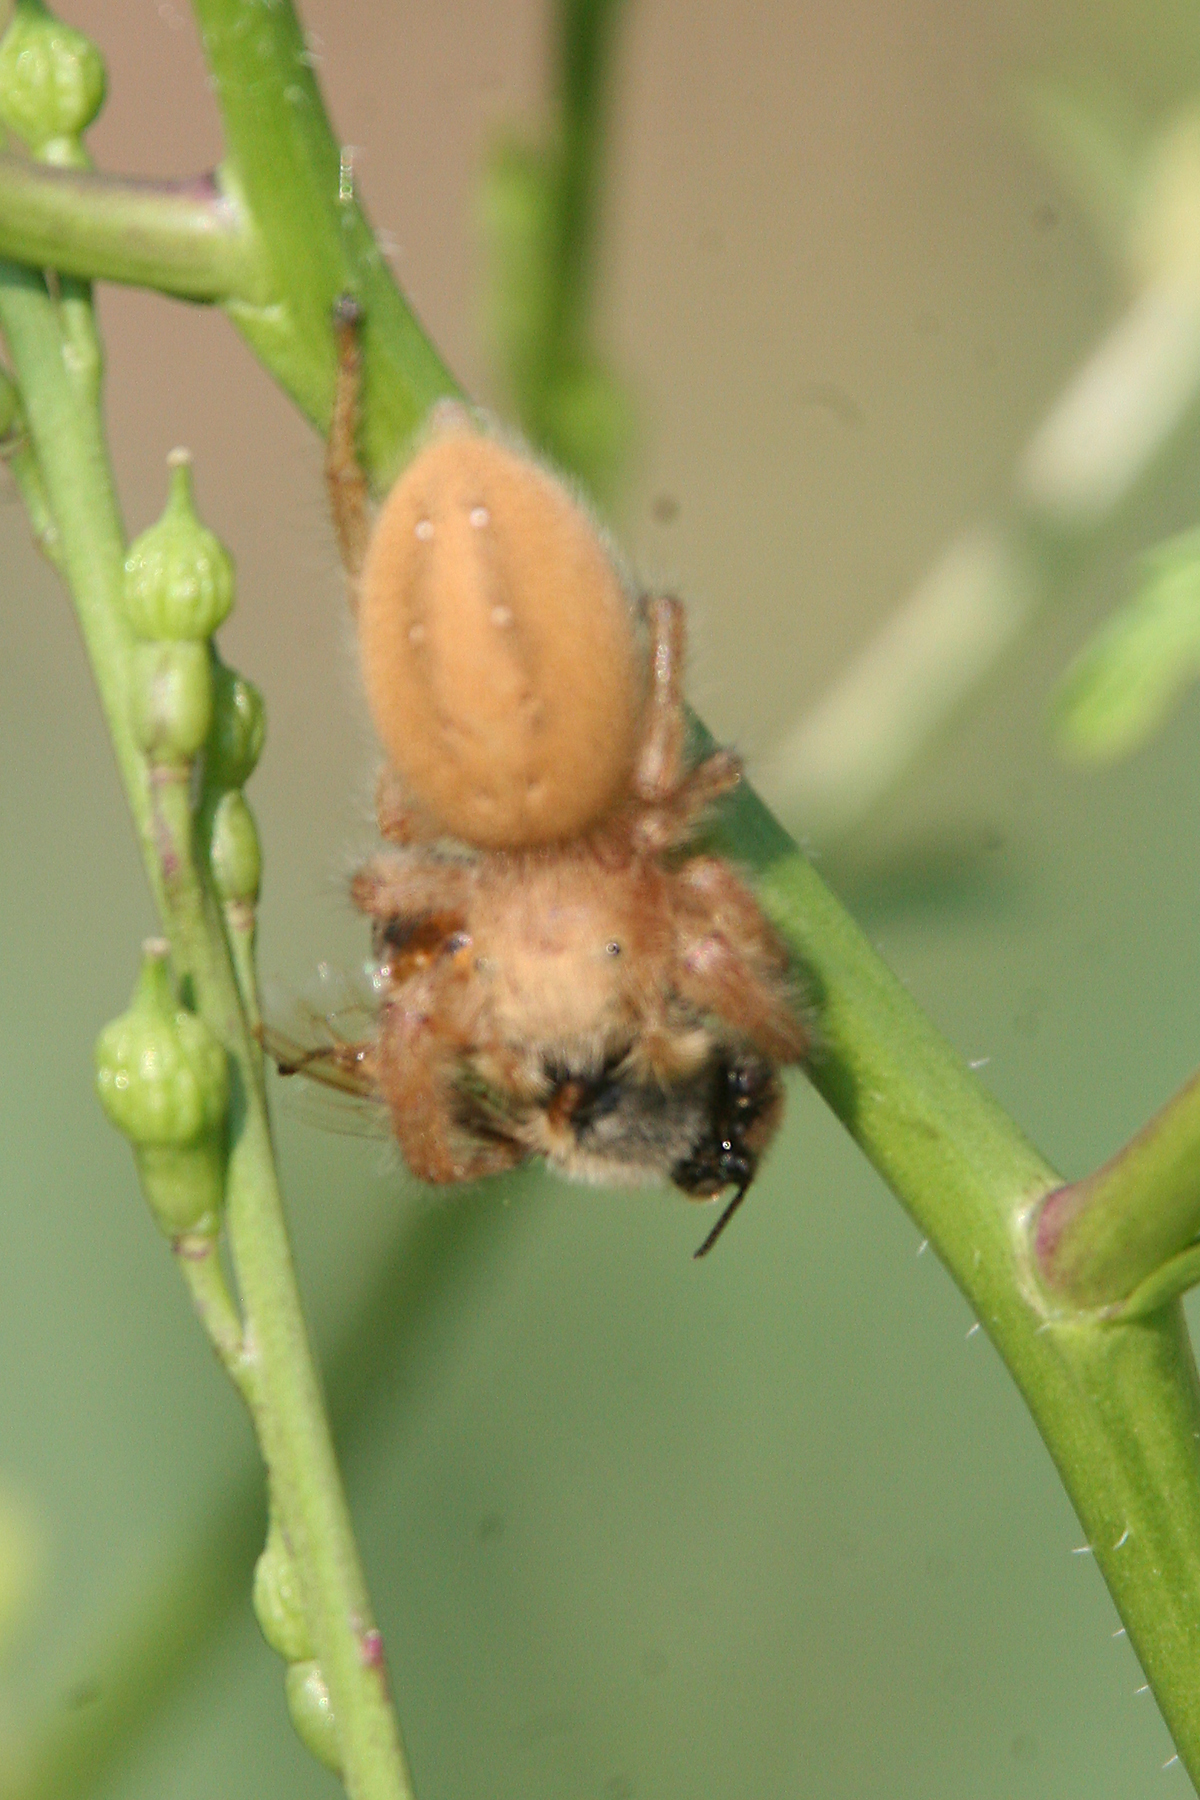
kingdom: Animalia
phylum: Arthropoda
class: Arachnida
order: Araneae
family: Salticidae
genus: Phidippus
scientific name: Phidippus pius
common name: Jumping spiders
